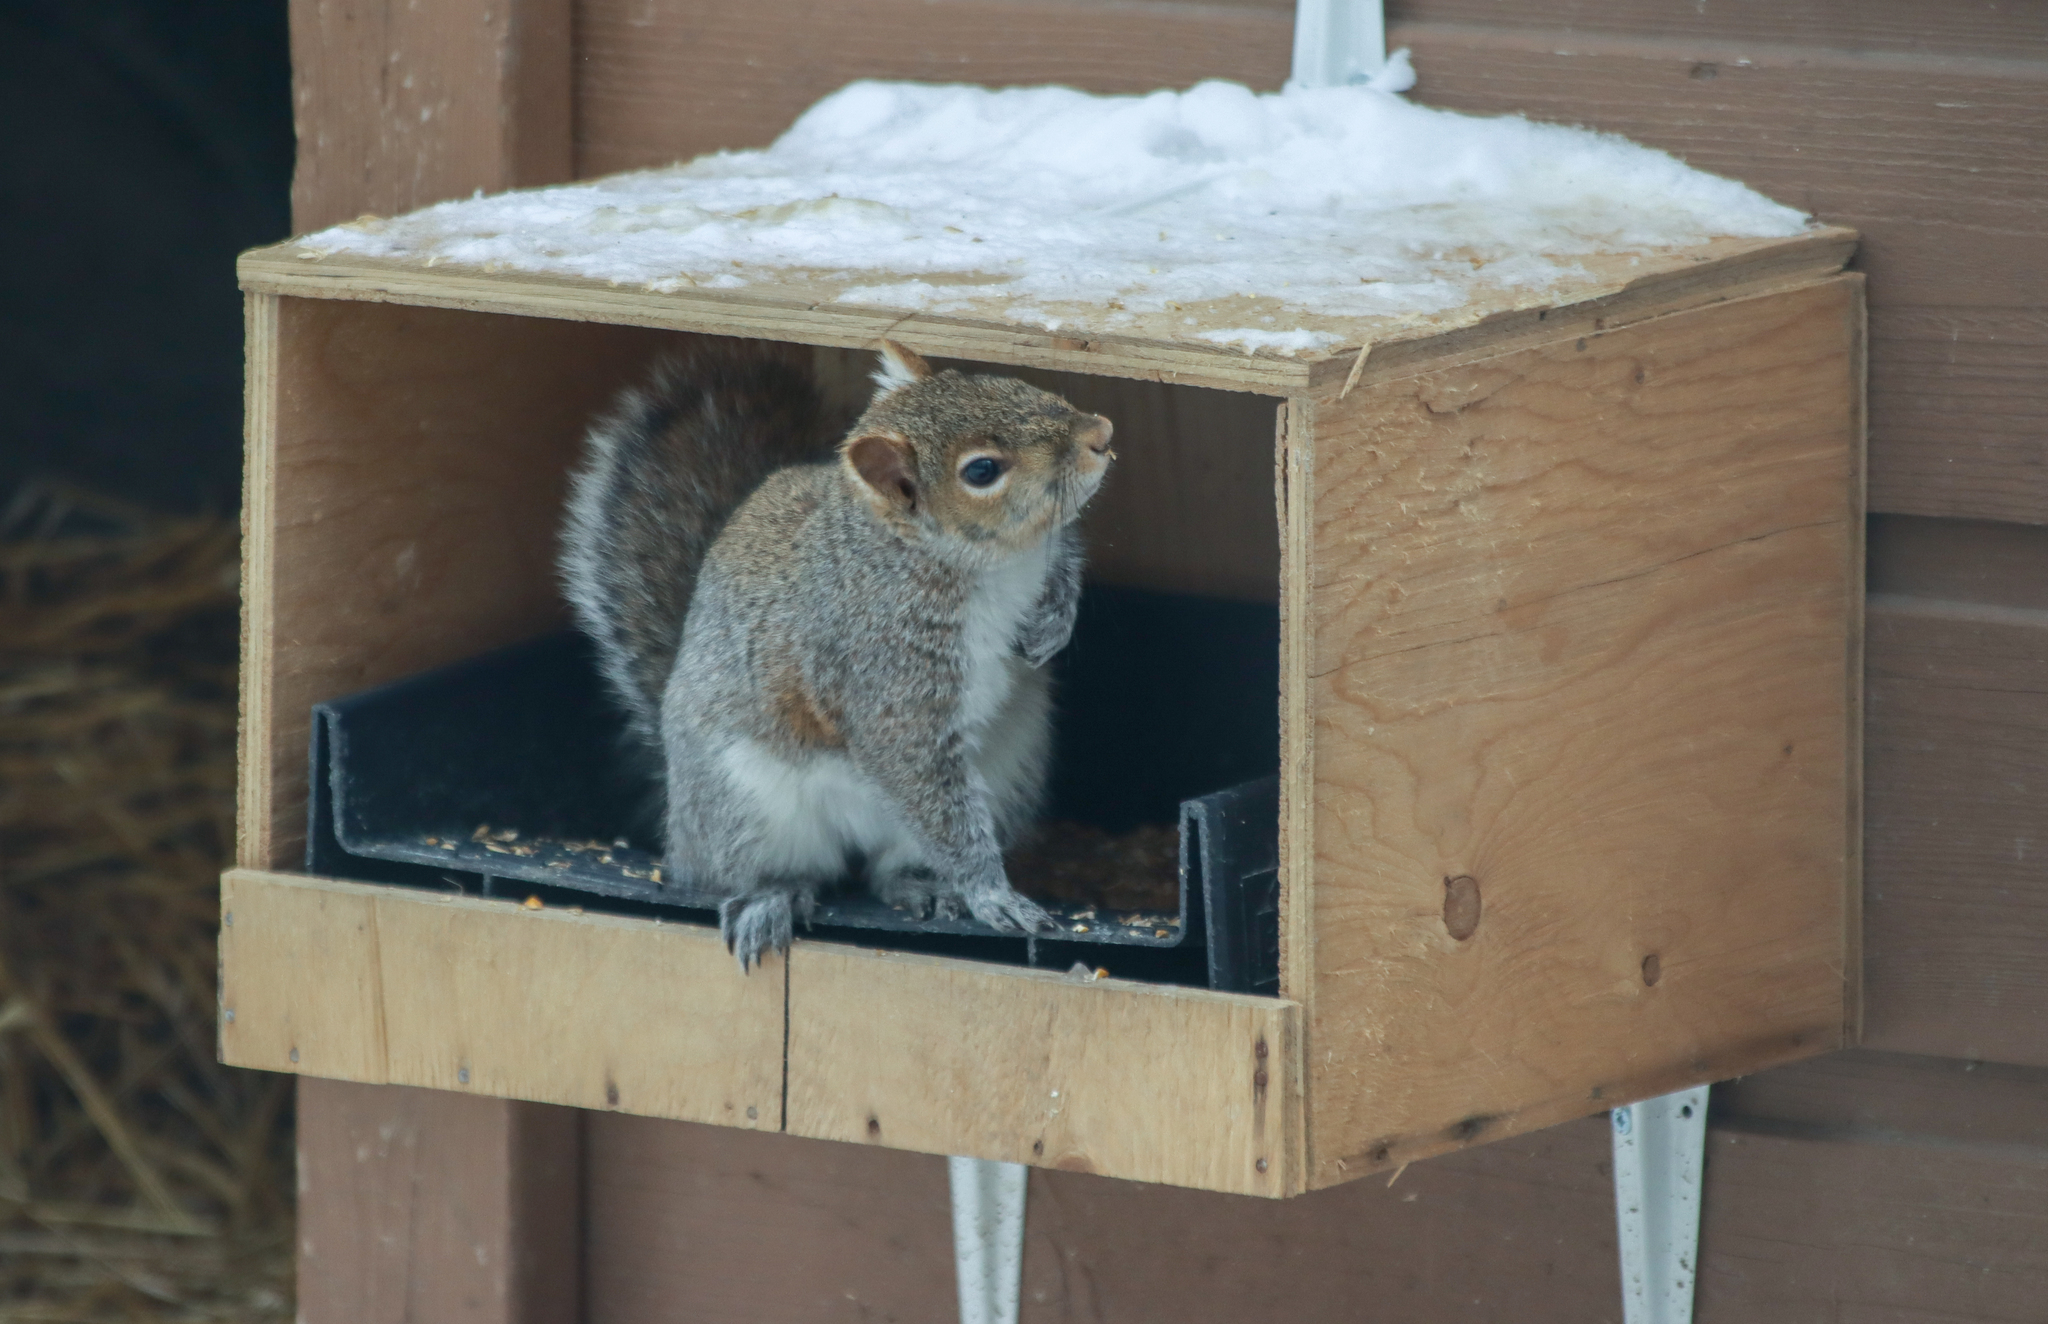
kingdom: Animalia
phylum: Chordata
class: Mammalia
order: Rodentia
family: Sciuridae
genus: Sciurus
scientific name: Sciurus carolinensis
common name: Eastern gray squirrel
